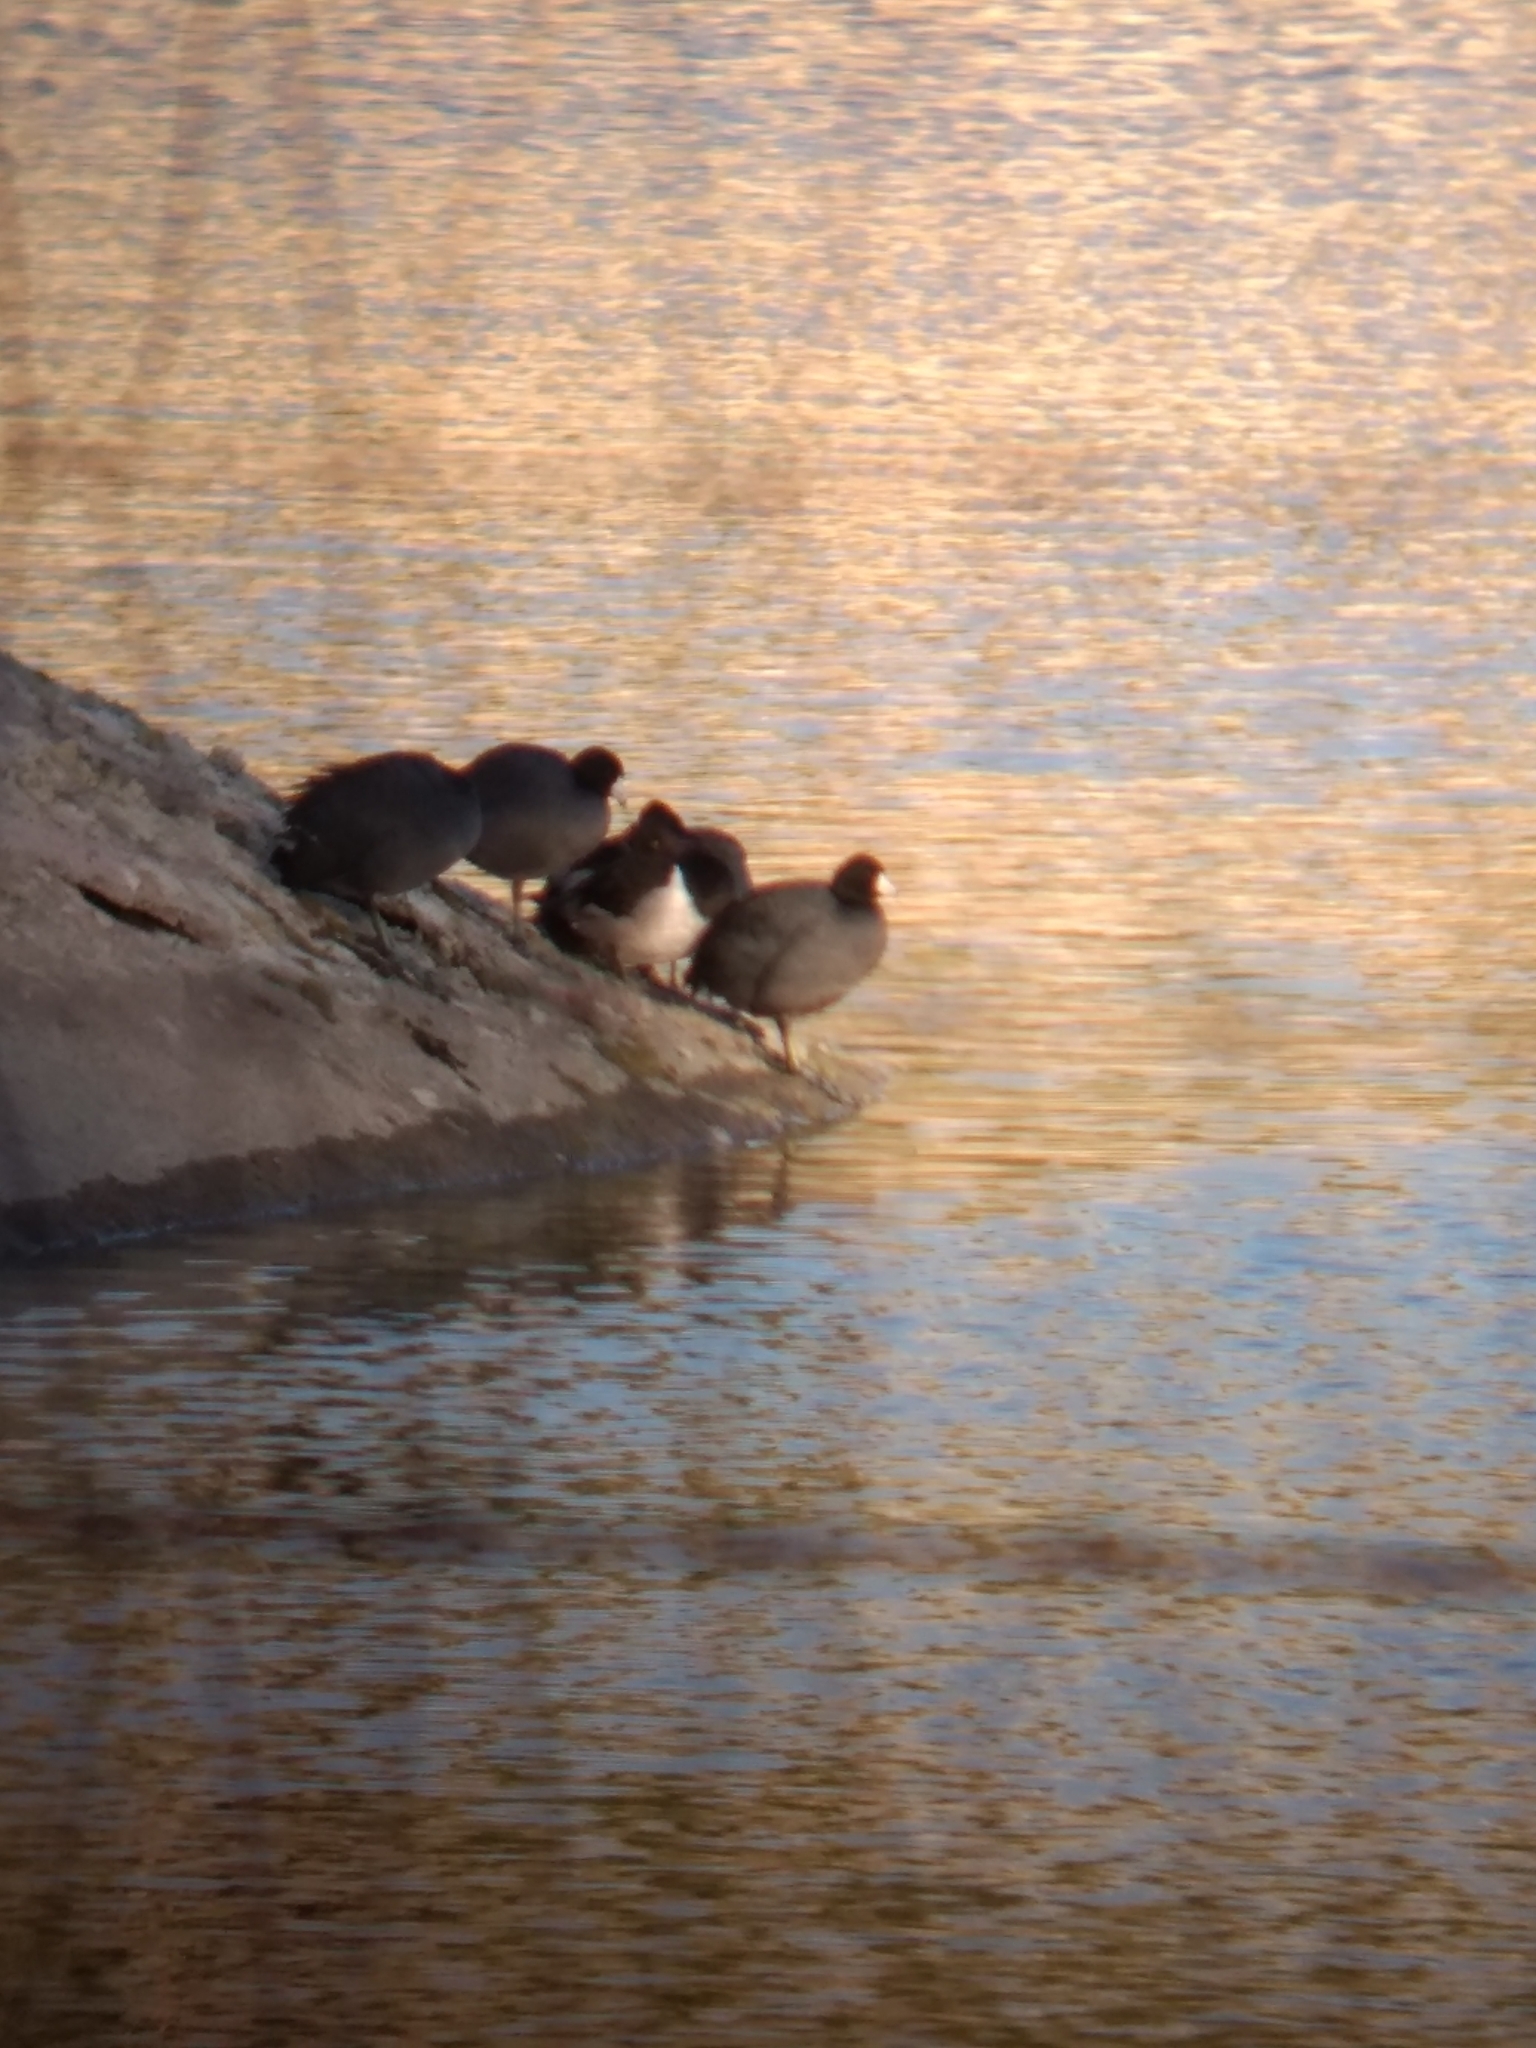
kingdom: Animalia
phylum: Chordata
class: Aves
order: Gruiformes
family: Rallidae
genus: Fulica
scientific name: Fulica americana
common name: American coot
